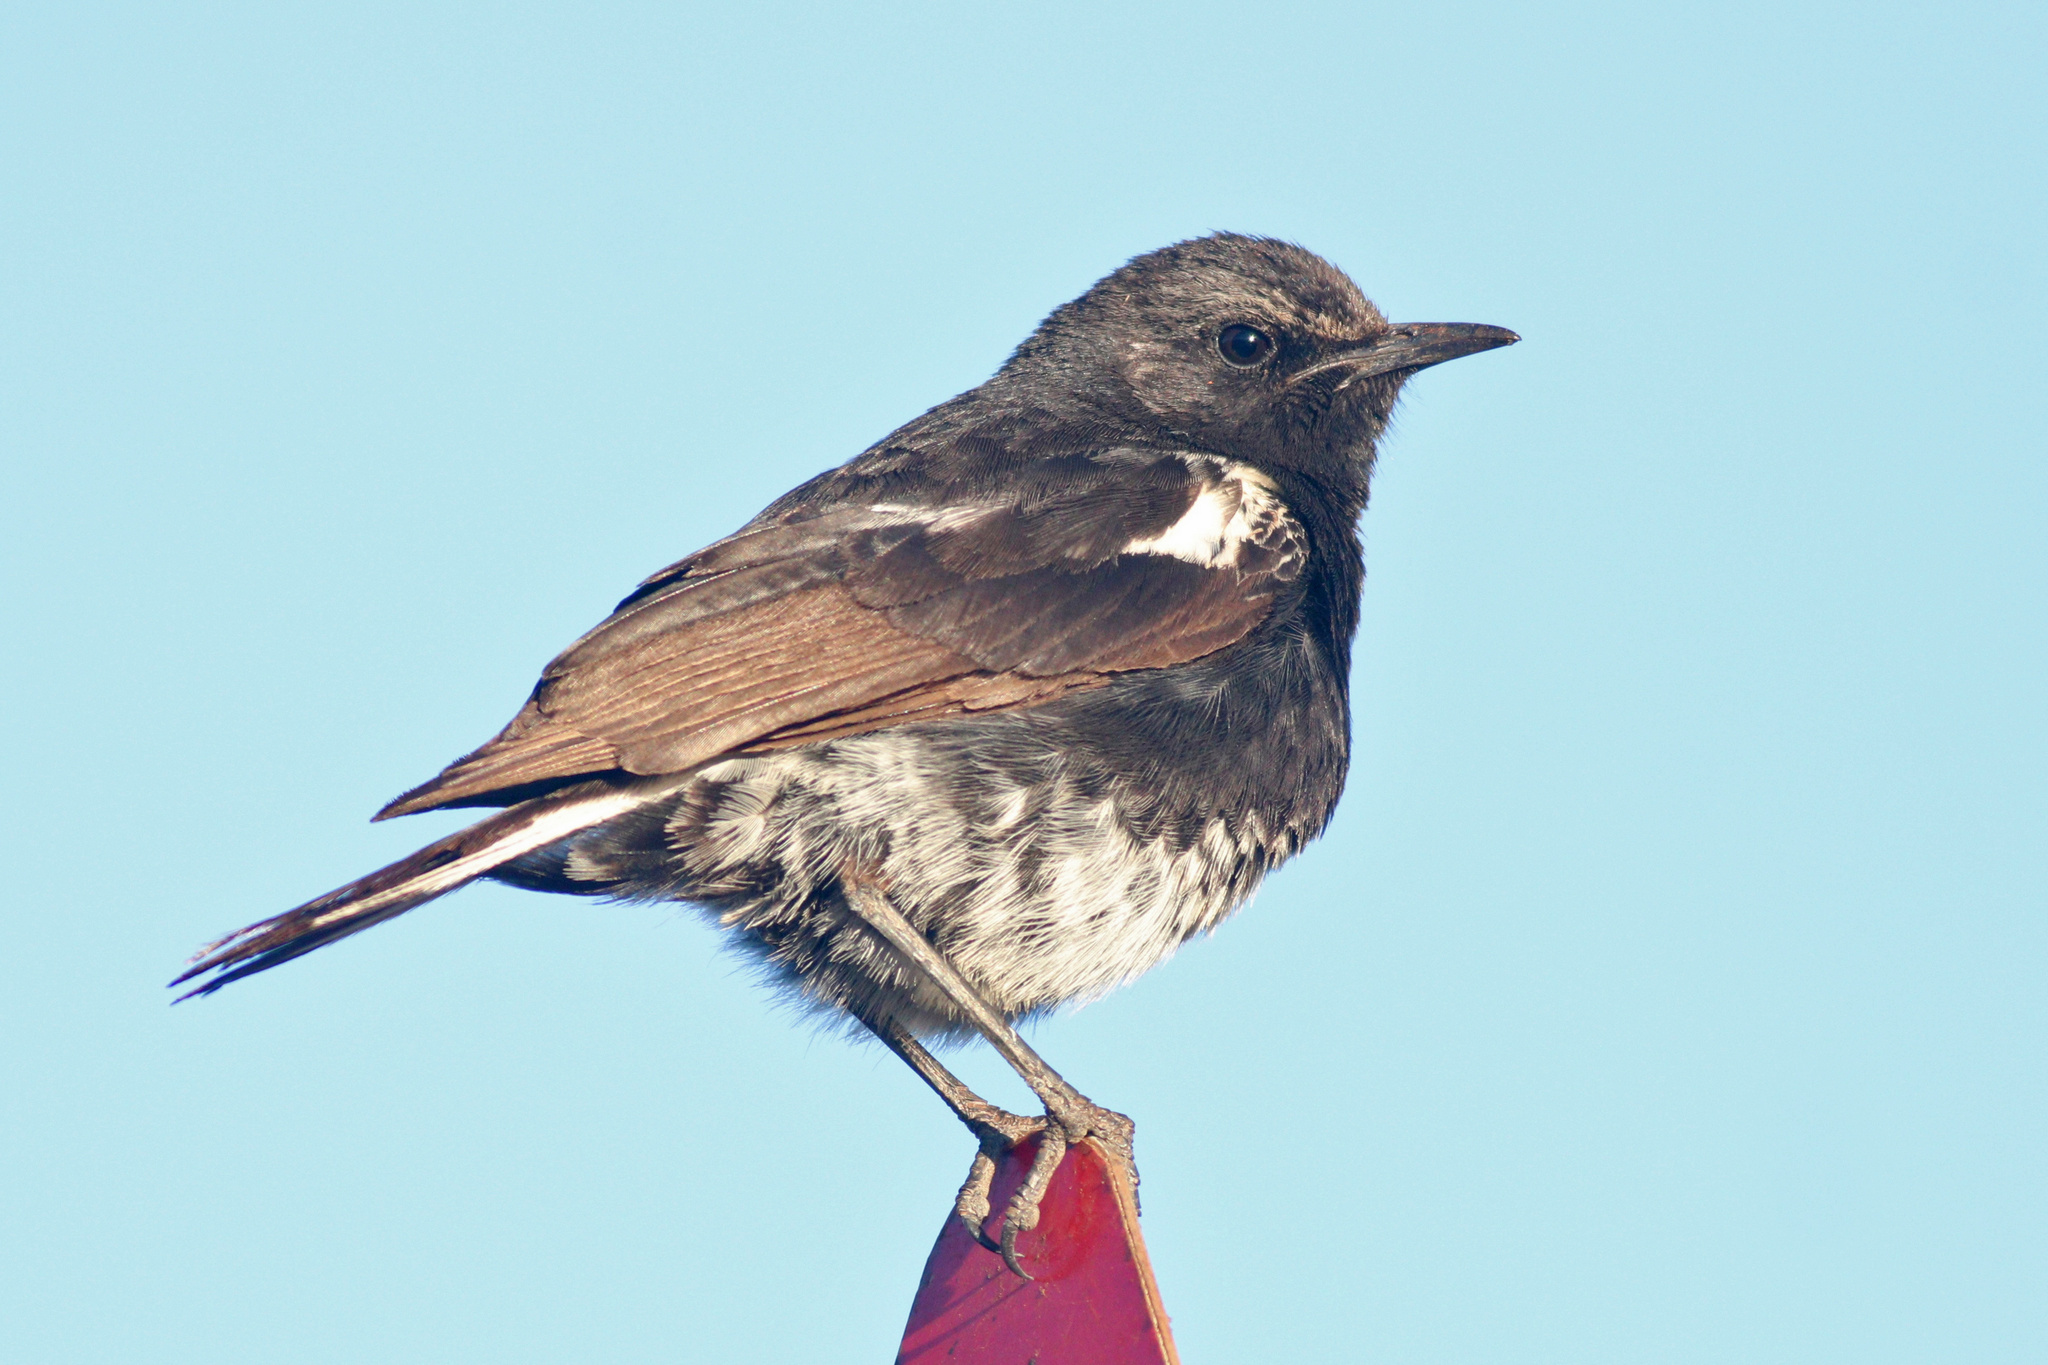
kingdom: Animalia
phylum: Chordata
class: Aves
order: Passeriformes
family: Muscicapidae
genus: Oenanthe
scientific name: Oenanthe monticola
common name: Mountain wheatear
